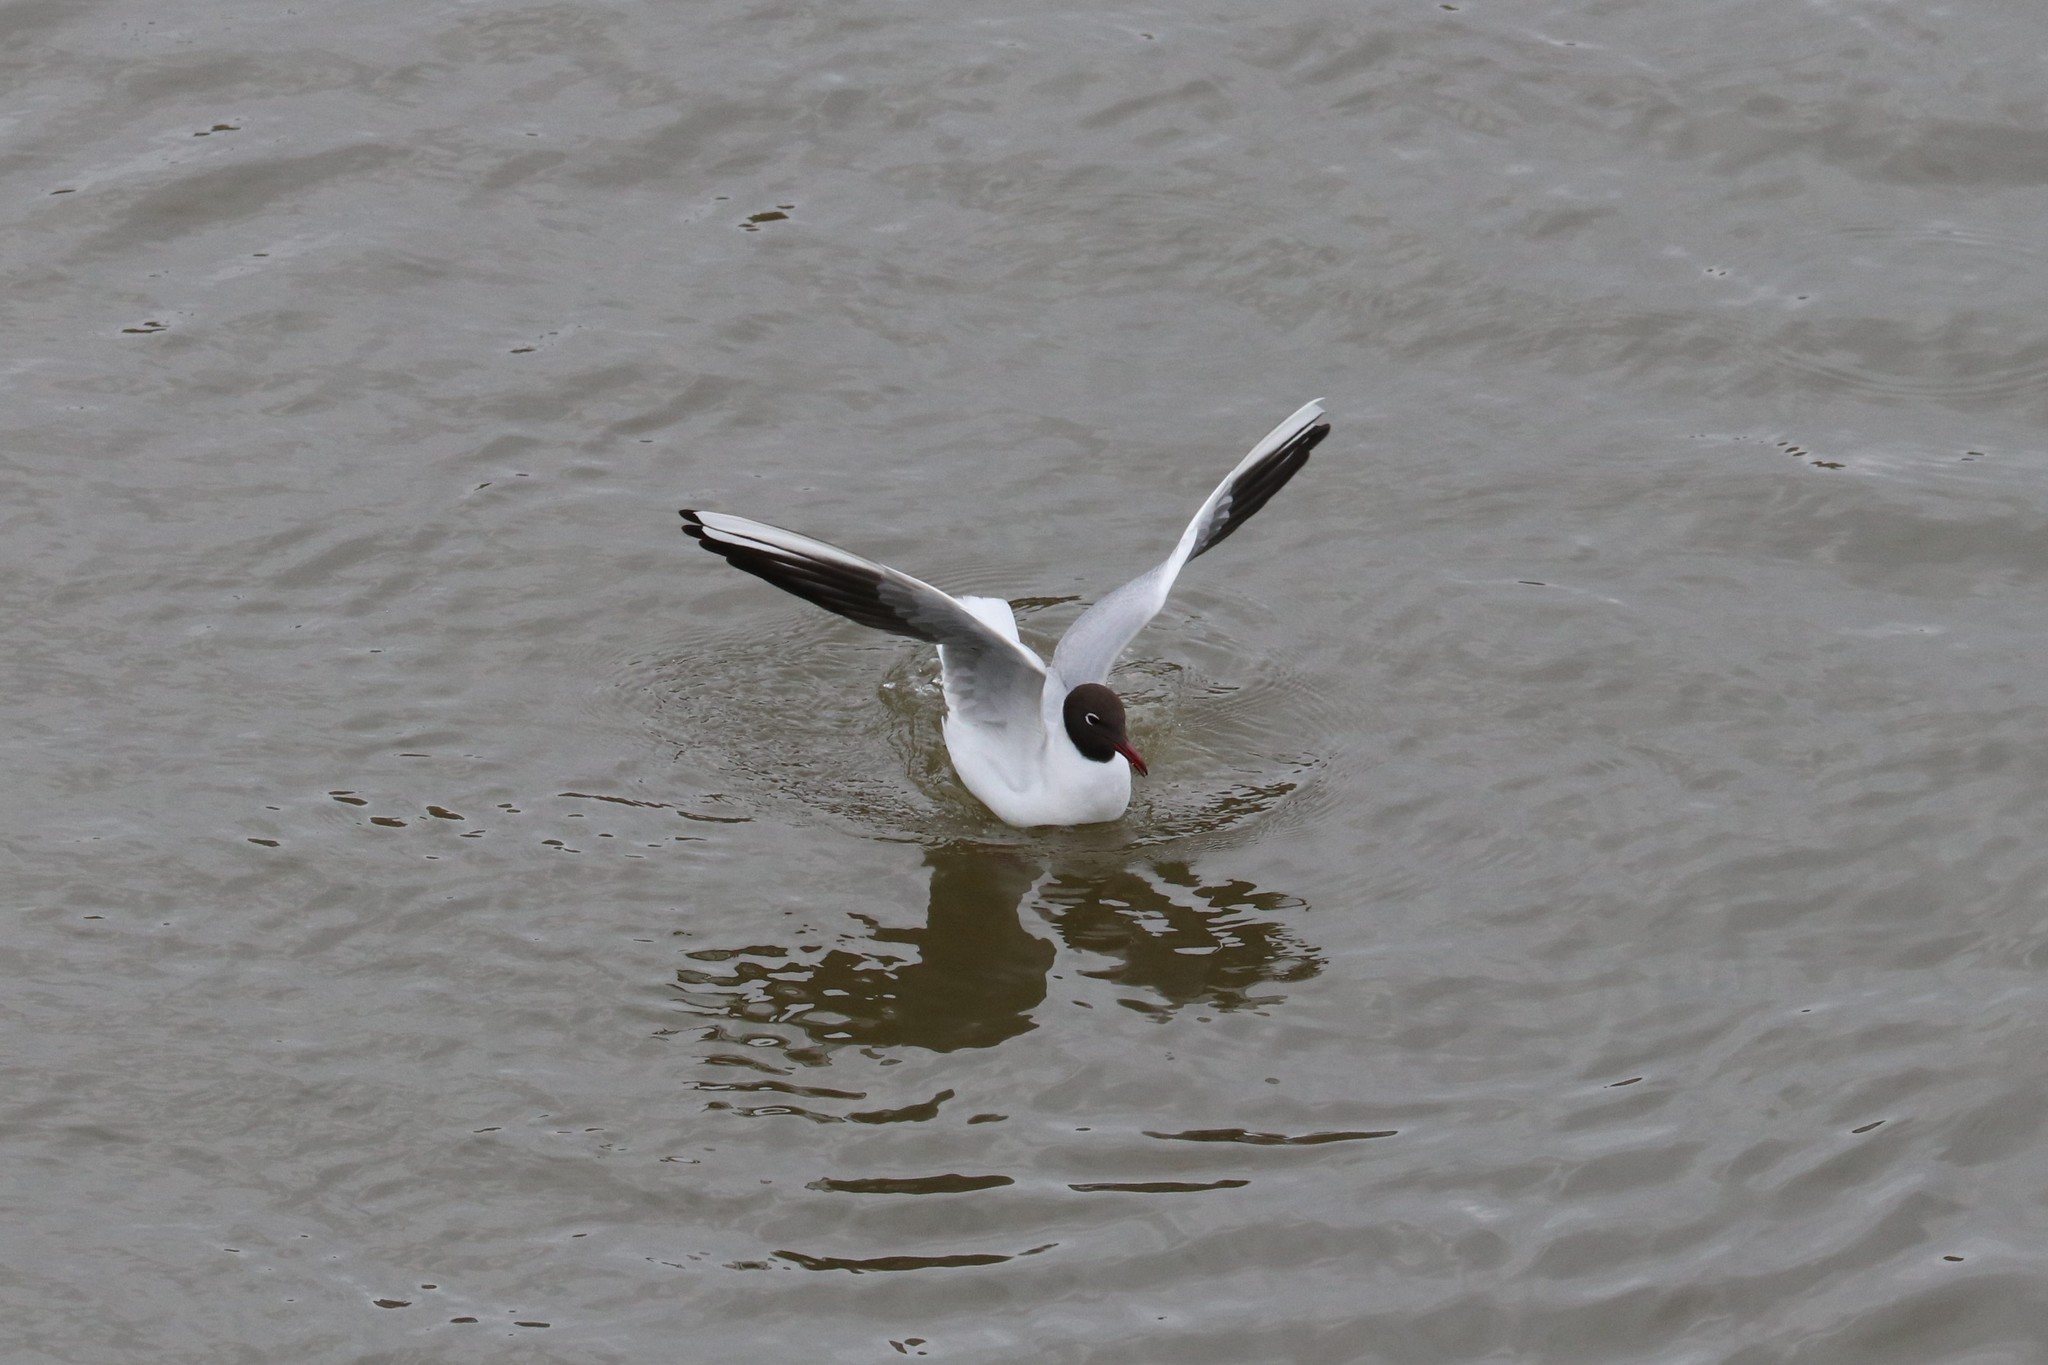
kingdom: Animalia
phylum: Chordata
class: Aves
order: Charadriiformes
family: Laridae
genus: Chroicocephalus
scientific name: Chroicocephalus ridibundus
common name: Black-headed gull
